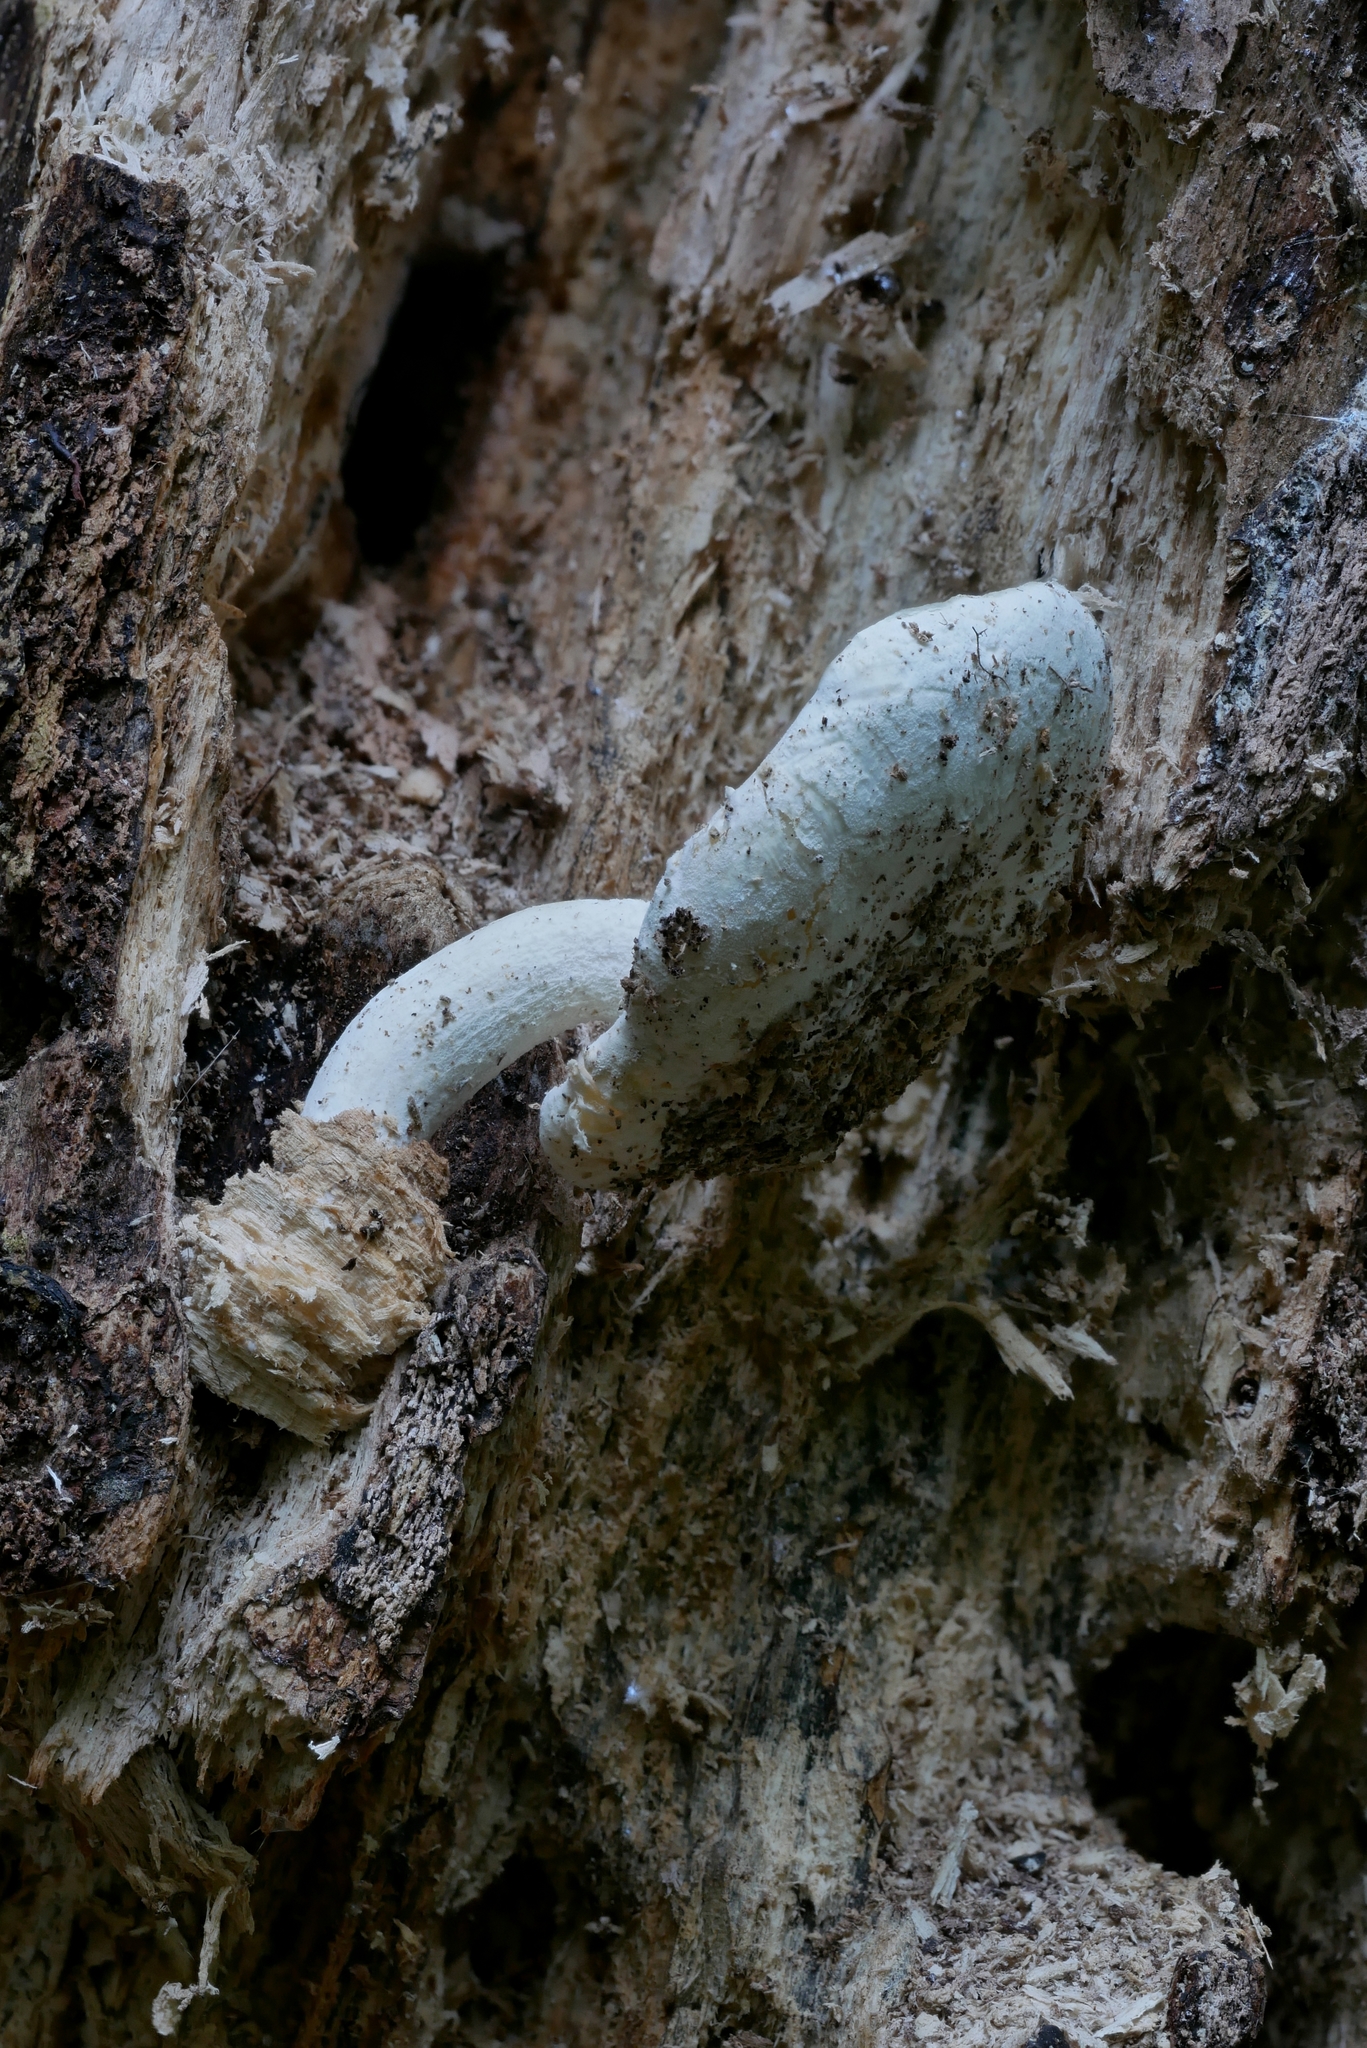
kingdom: Fungi
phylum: Basidiomycota
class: Agaricomycetes
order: Agaricales
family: Lyophyllaceae
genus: Ossicaulis
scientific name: Ossicaulis lignatilis
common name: Mealy oyster
